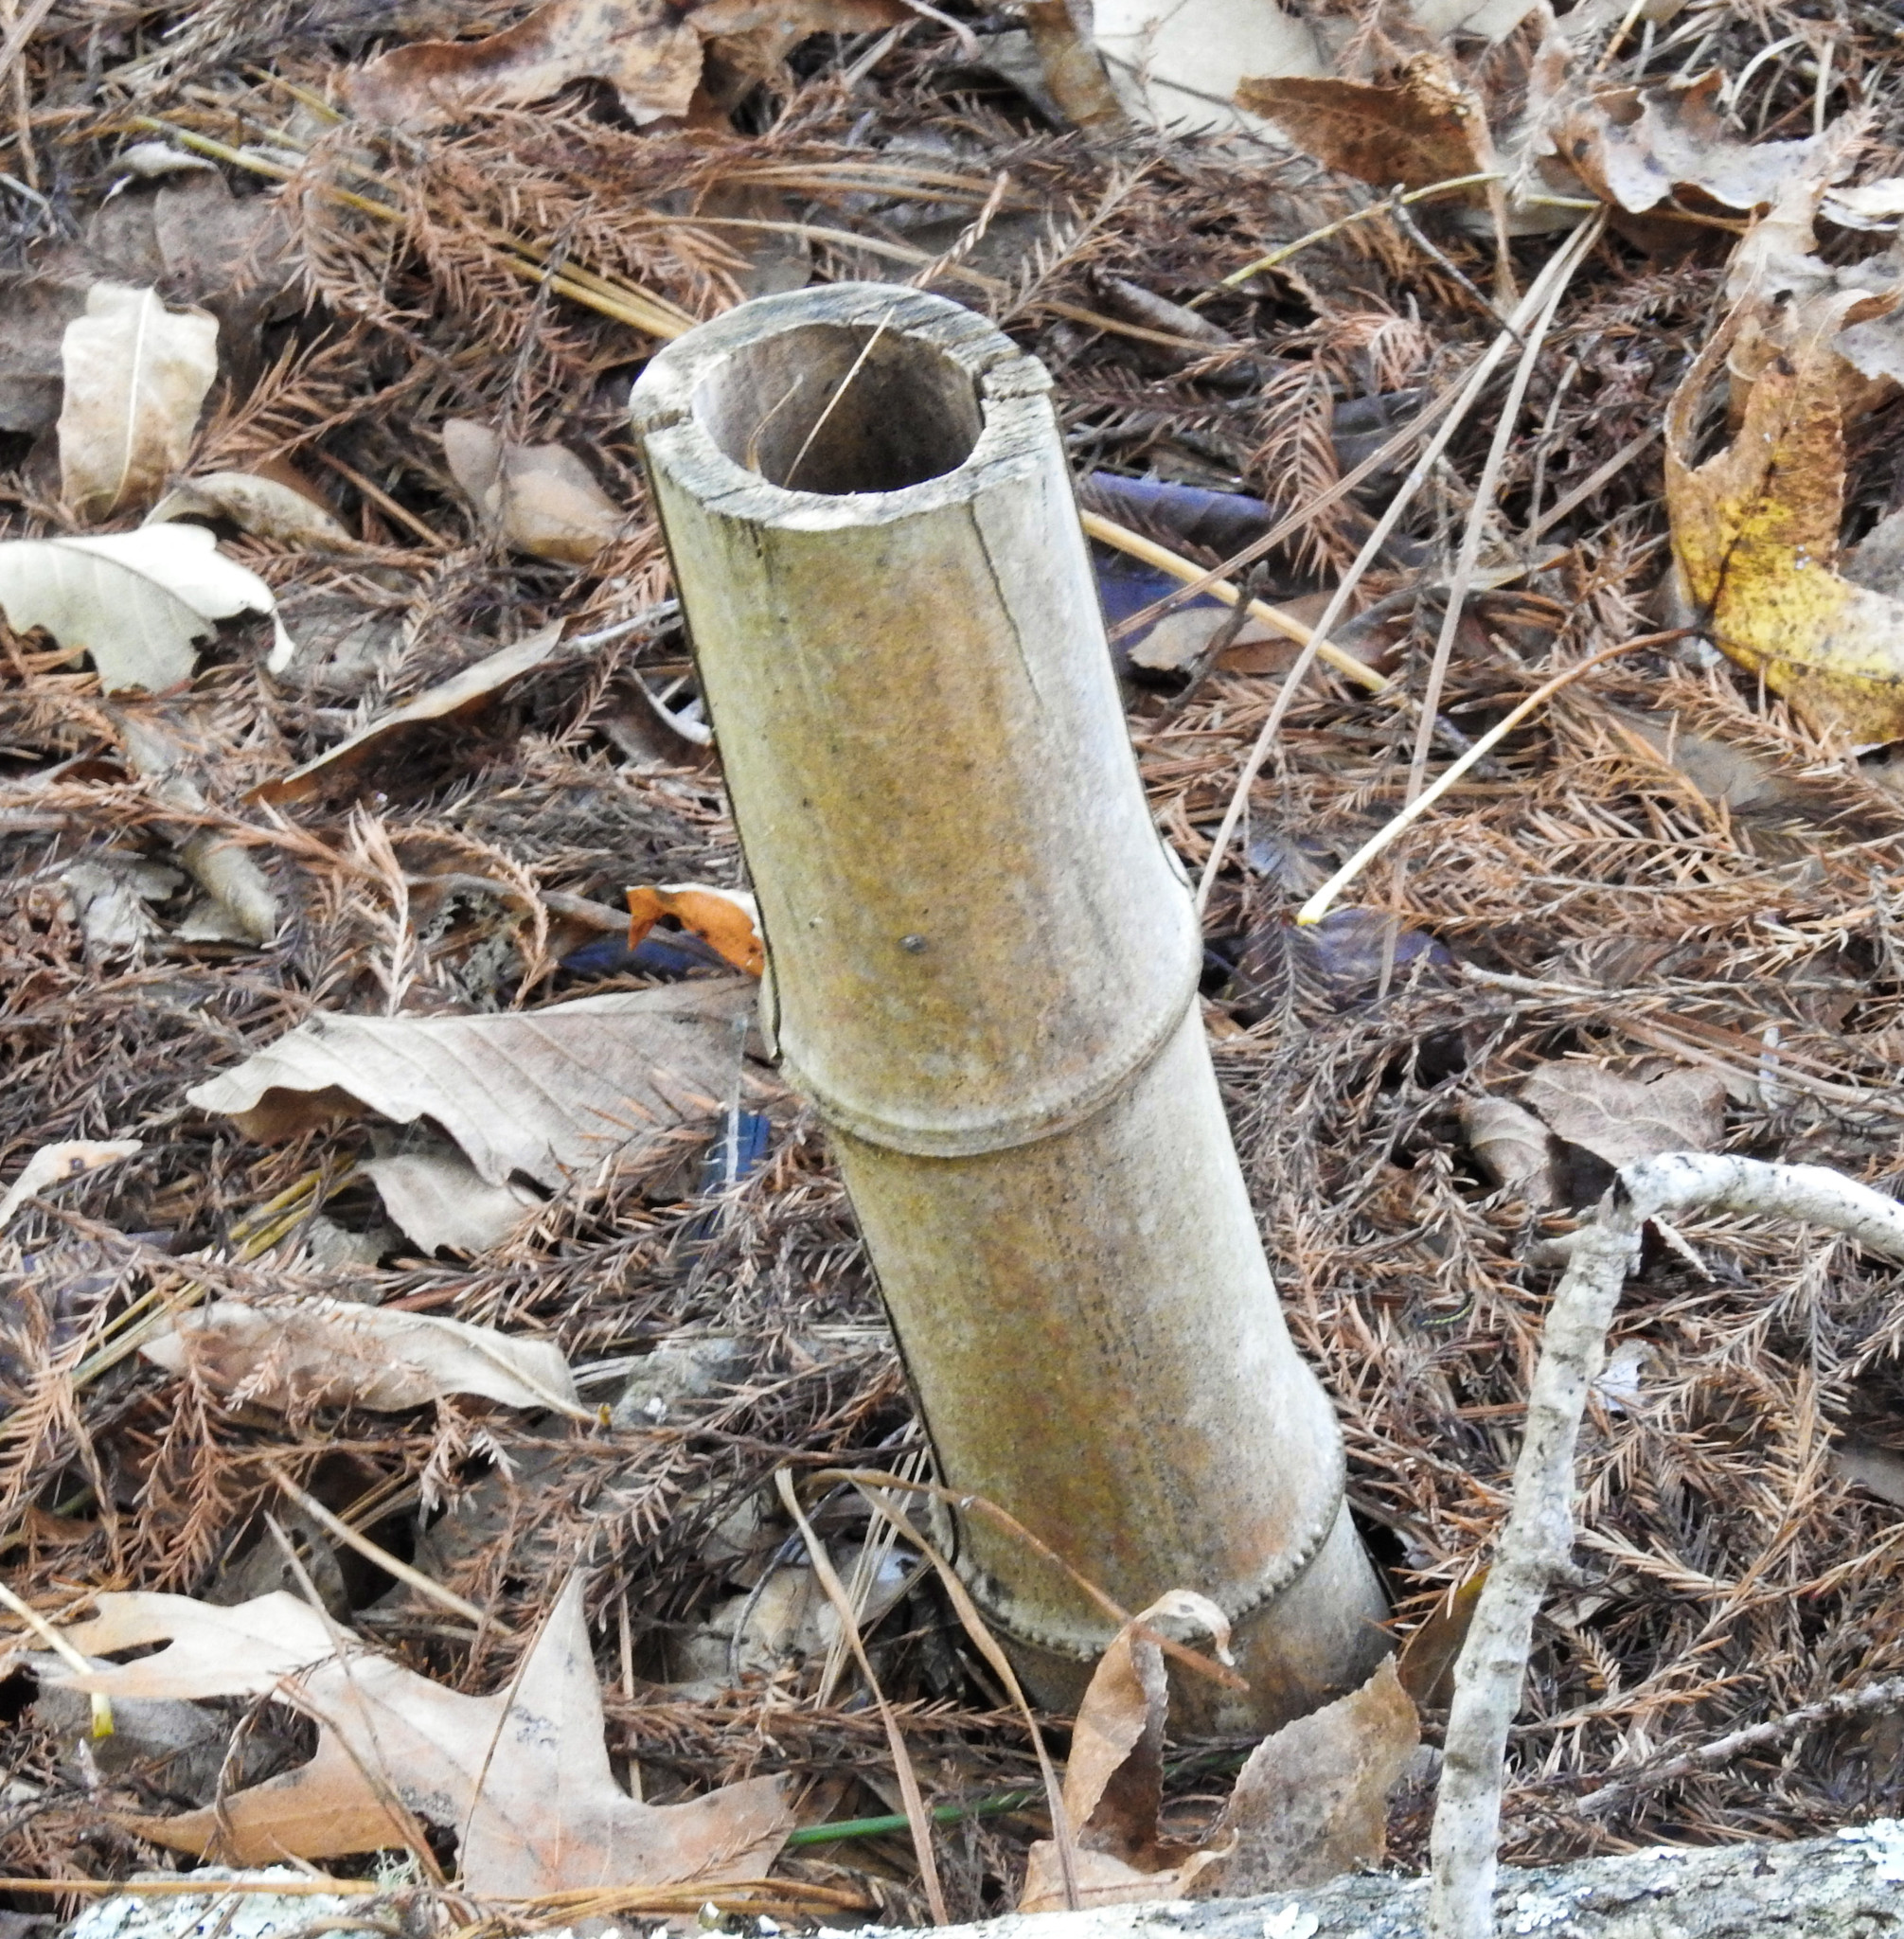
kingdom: Plantae
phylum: Tracheophyta
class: Liliopsida
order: Poales
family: Poaceae
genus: Bambusa
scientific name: Bambusa vulgaris
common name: Common bamboo
